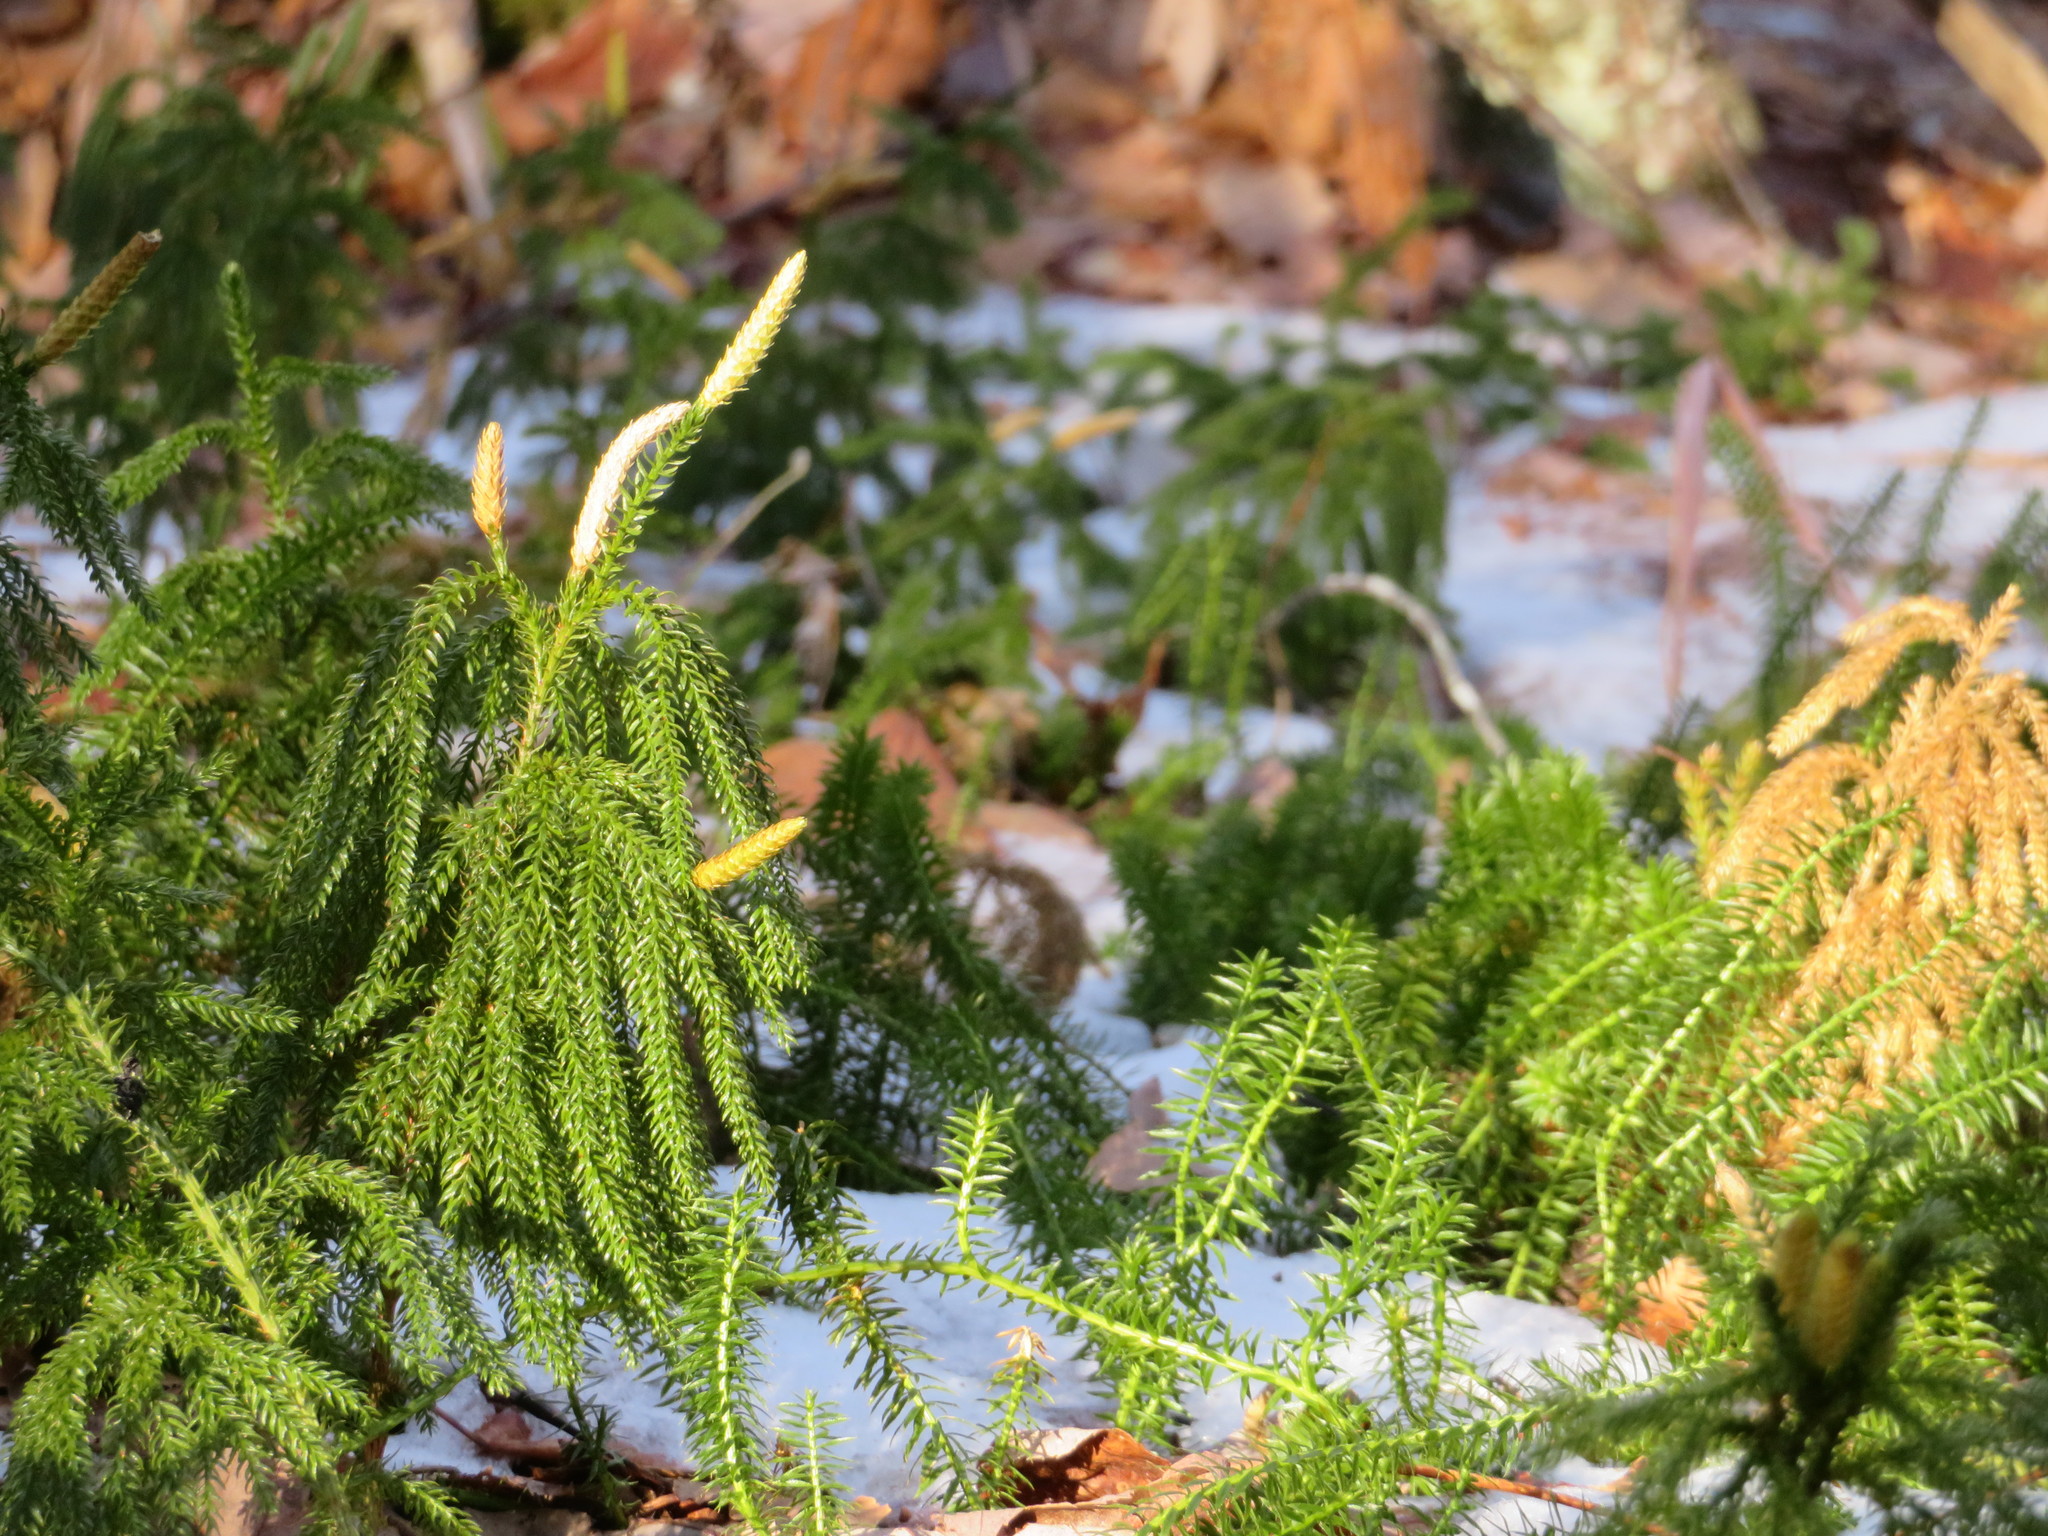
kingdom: Plantae
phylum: Tracheophyta
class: Lycopodiopsida
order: Lycopodiales
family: Lycopodiaceae
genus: Dendrolycopodium
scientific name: Dendrolycopodium dendroideum
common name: Northern tree-clubmoss
